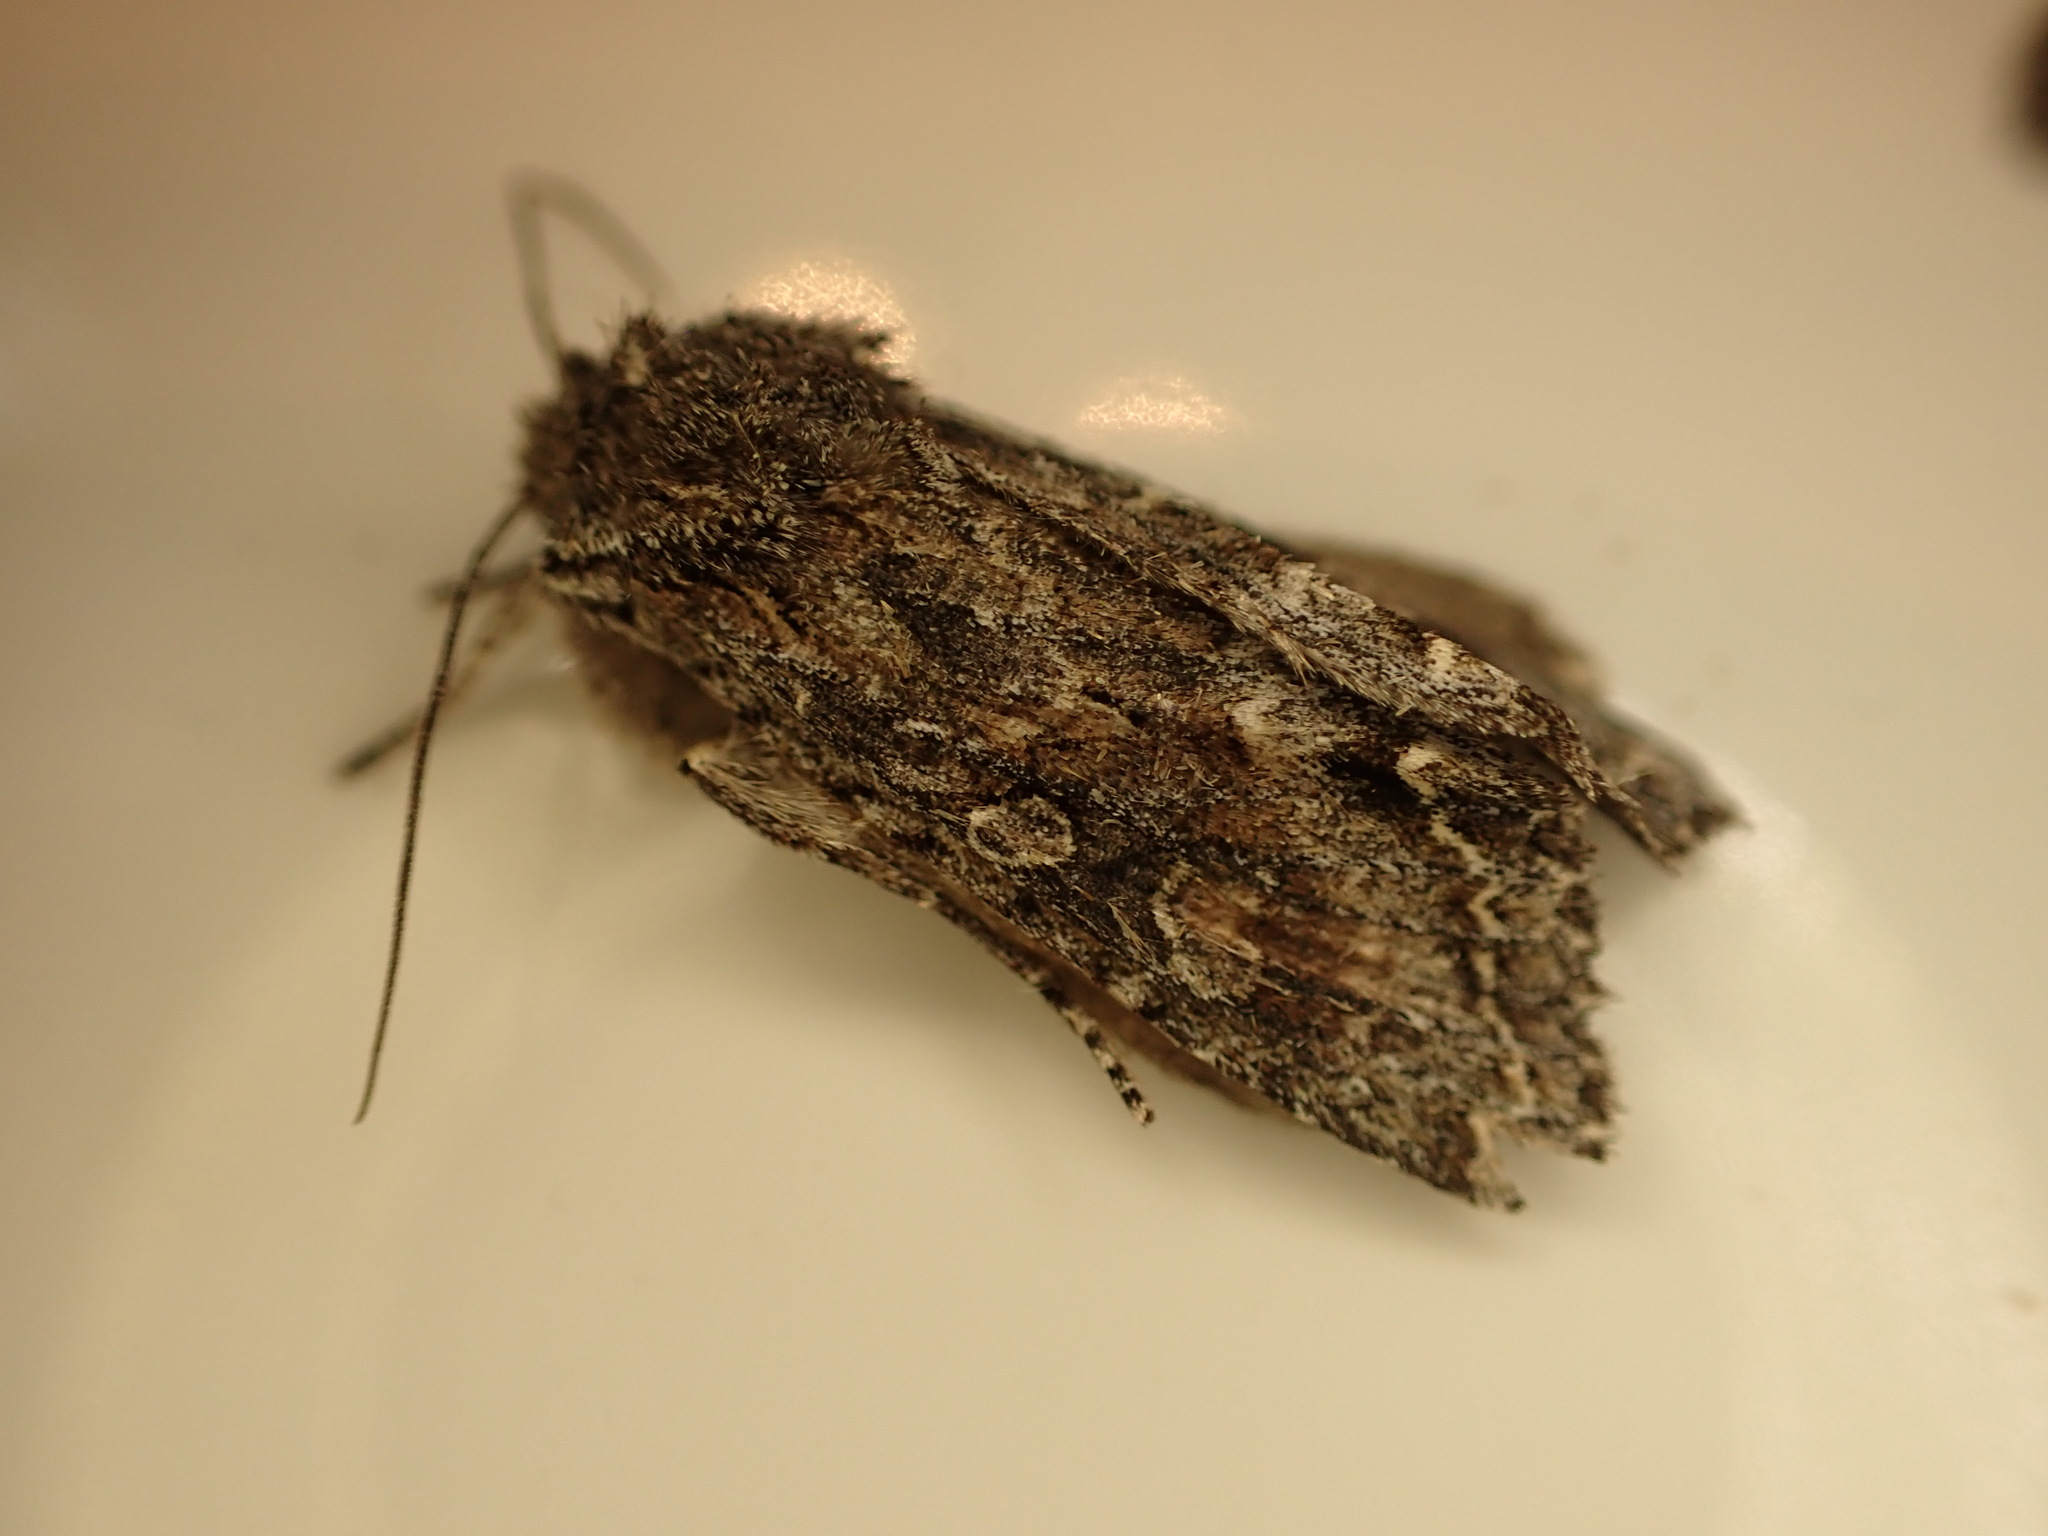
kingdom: Animalia
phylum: Arthropoda
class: Insecta
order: Lepidoptera
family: Noctuidae
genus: Ichneutica
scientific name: Ichneutica mutans
